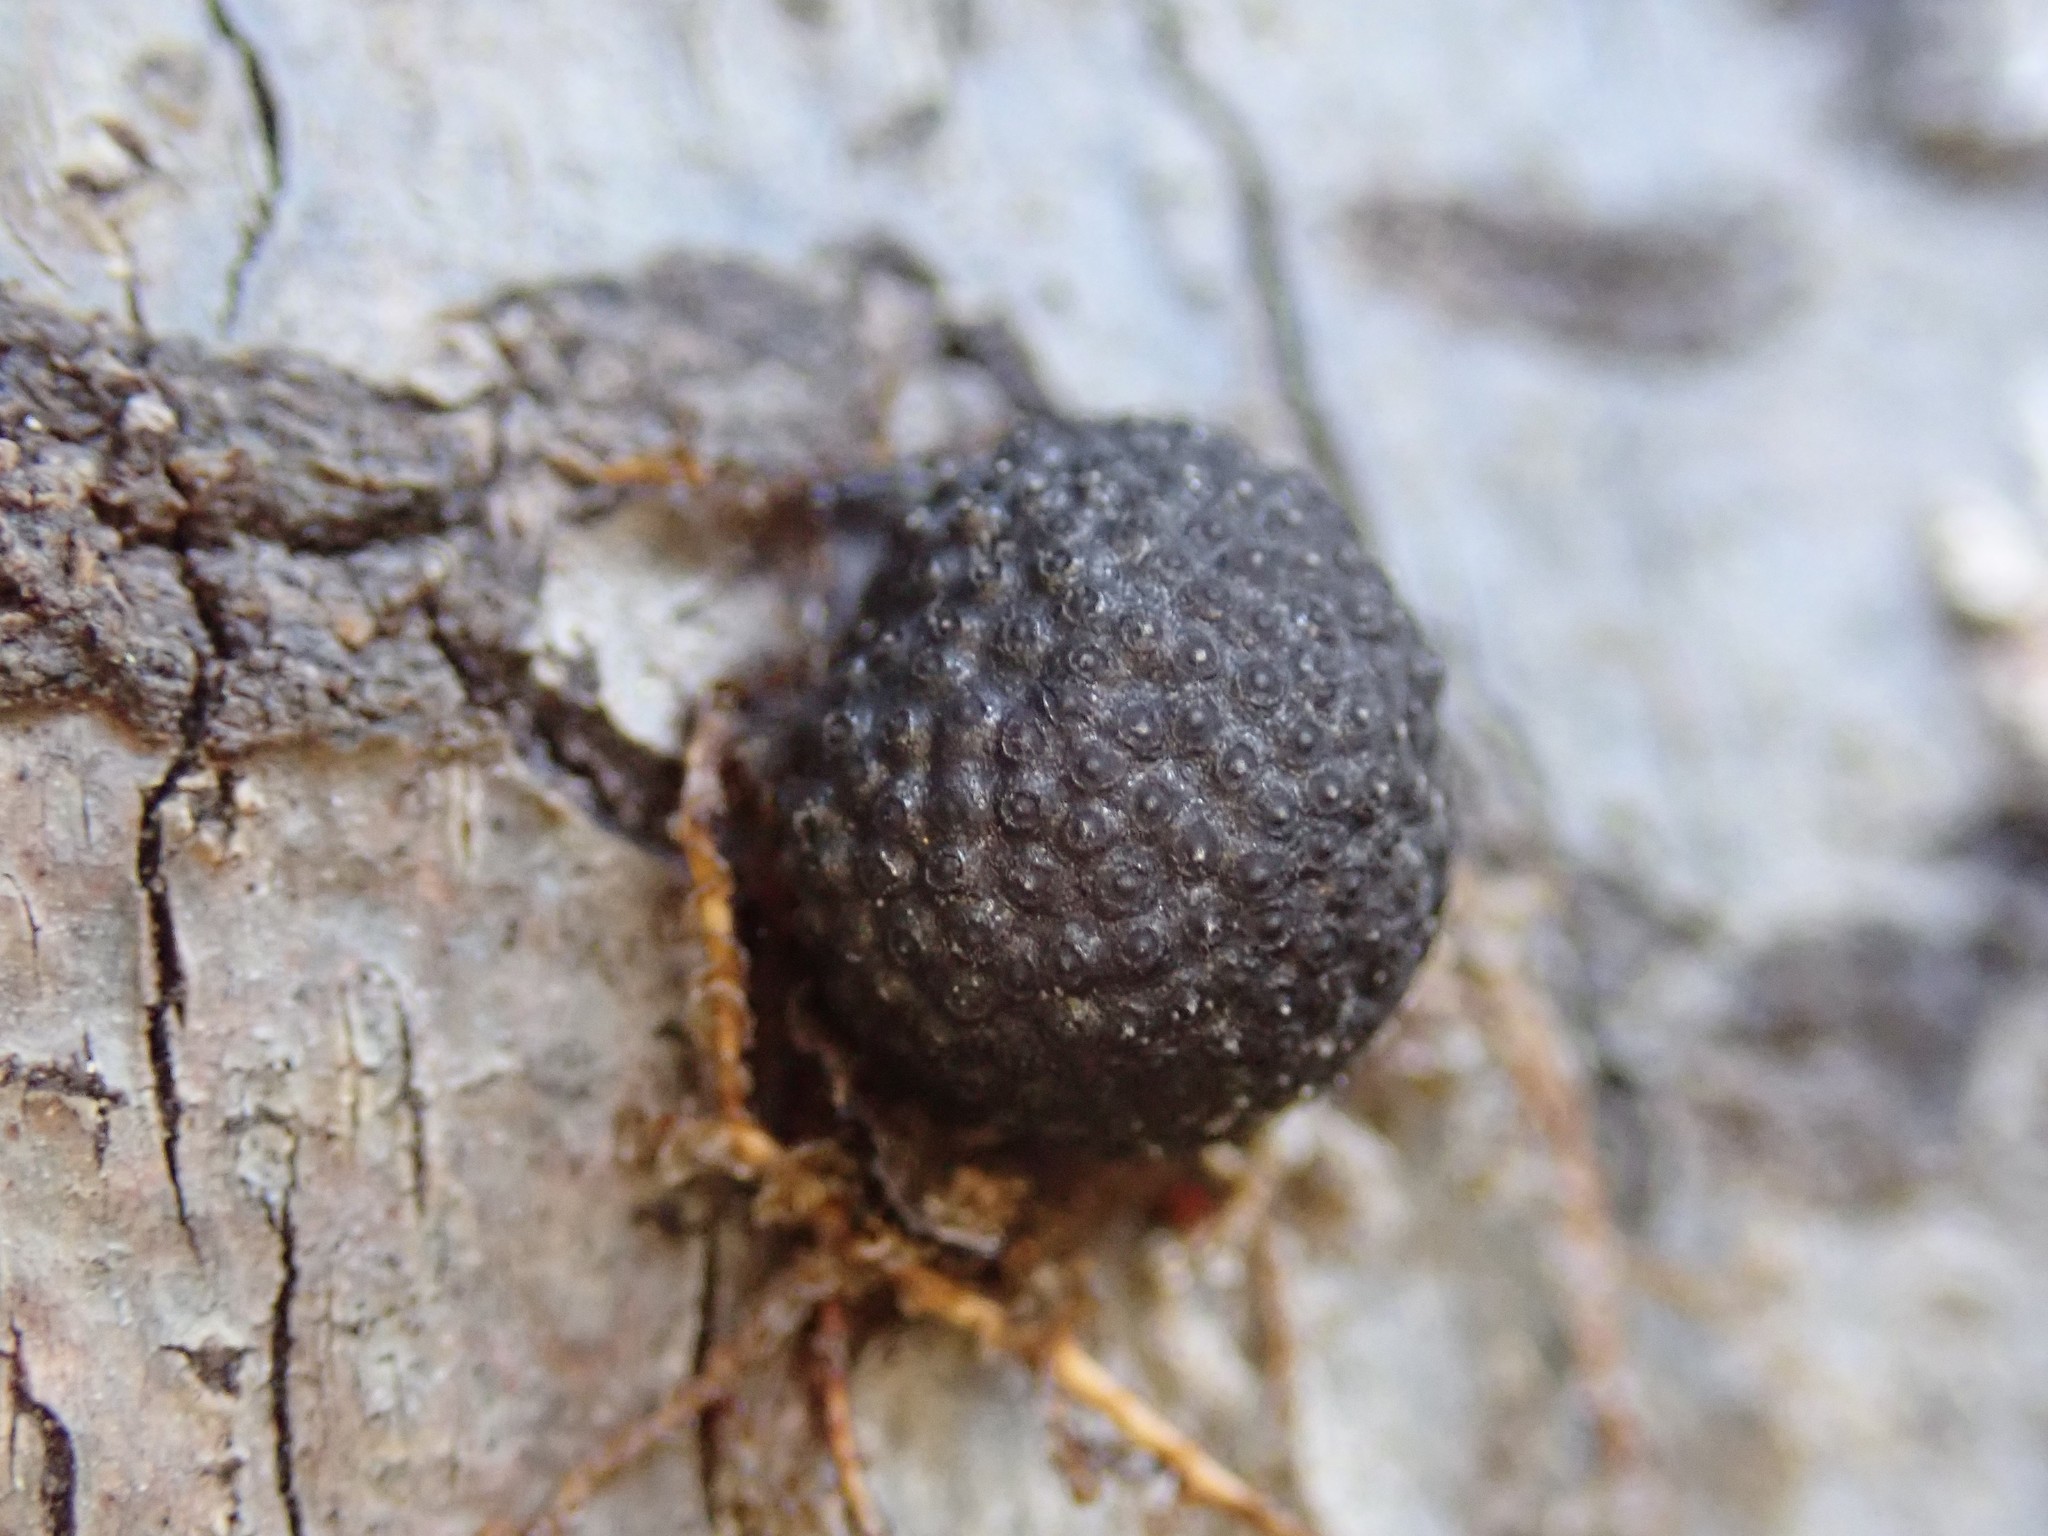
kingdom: Fungi
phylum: Ascomycota
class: Sordariomycetes
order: Xylariales
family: Hypoxylaceae
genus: Annulohypoxylon
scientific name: Annulohypoxylon thouarsianum
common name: Cramp balls
